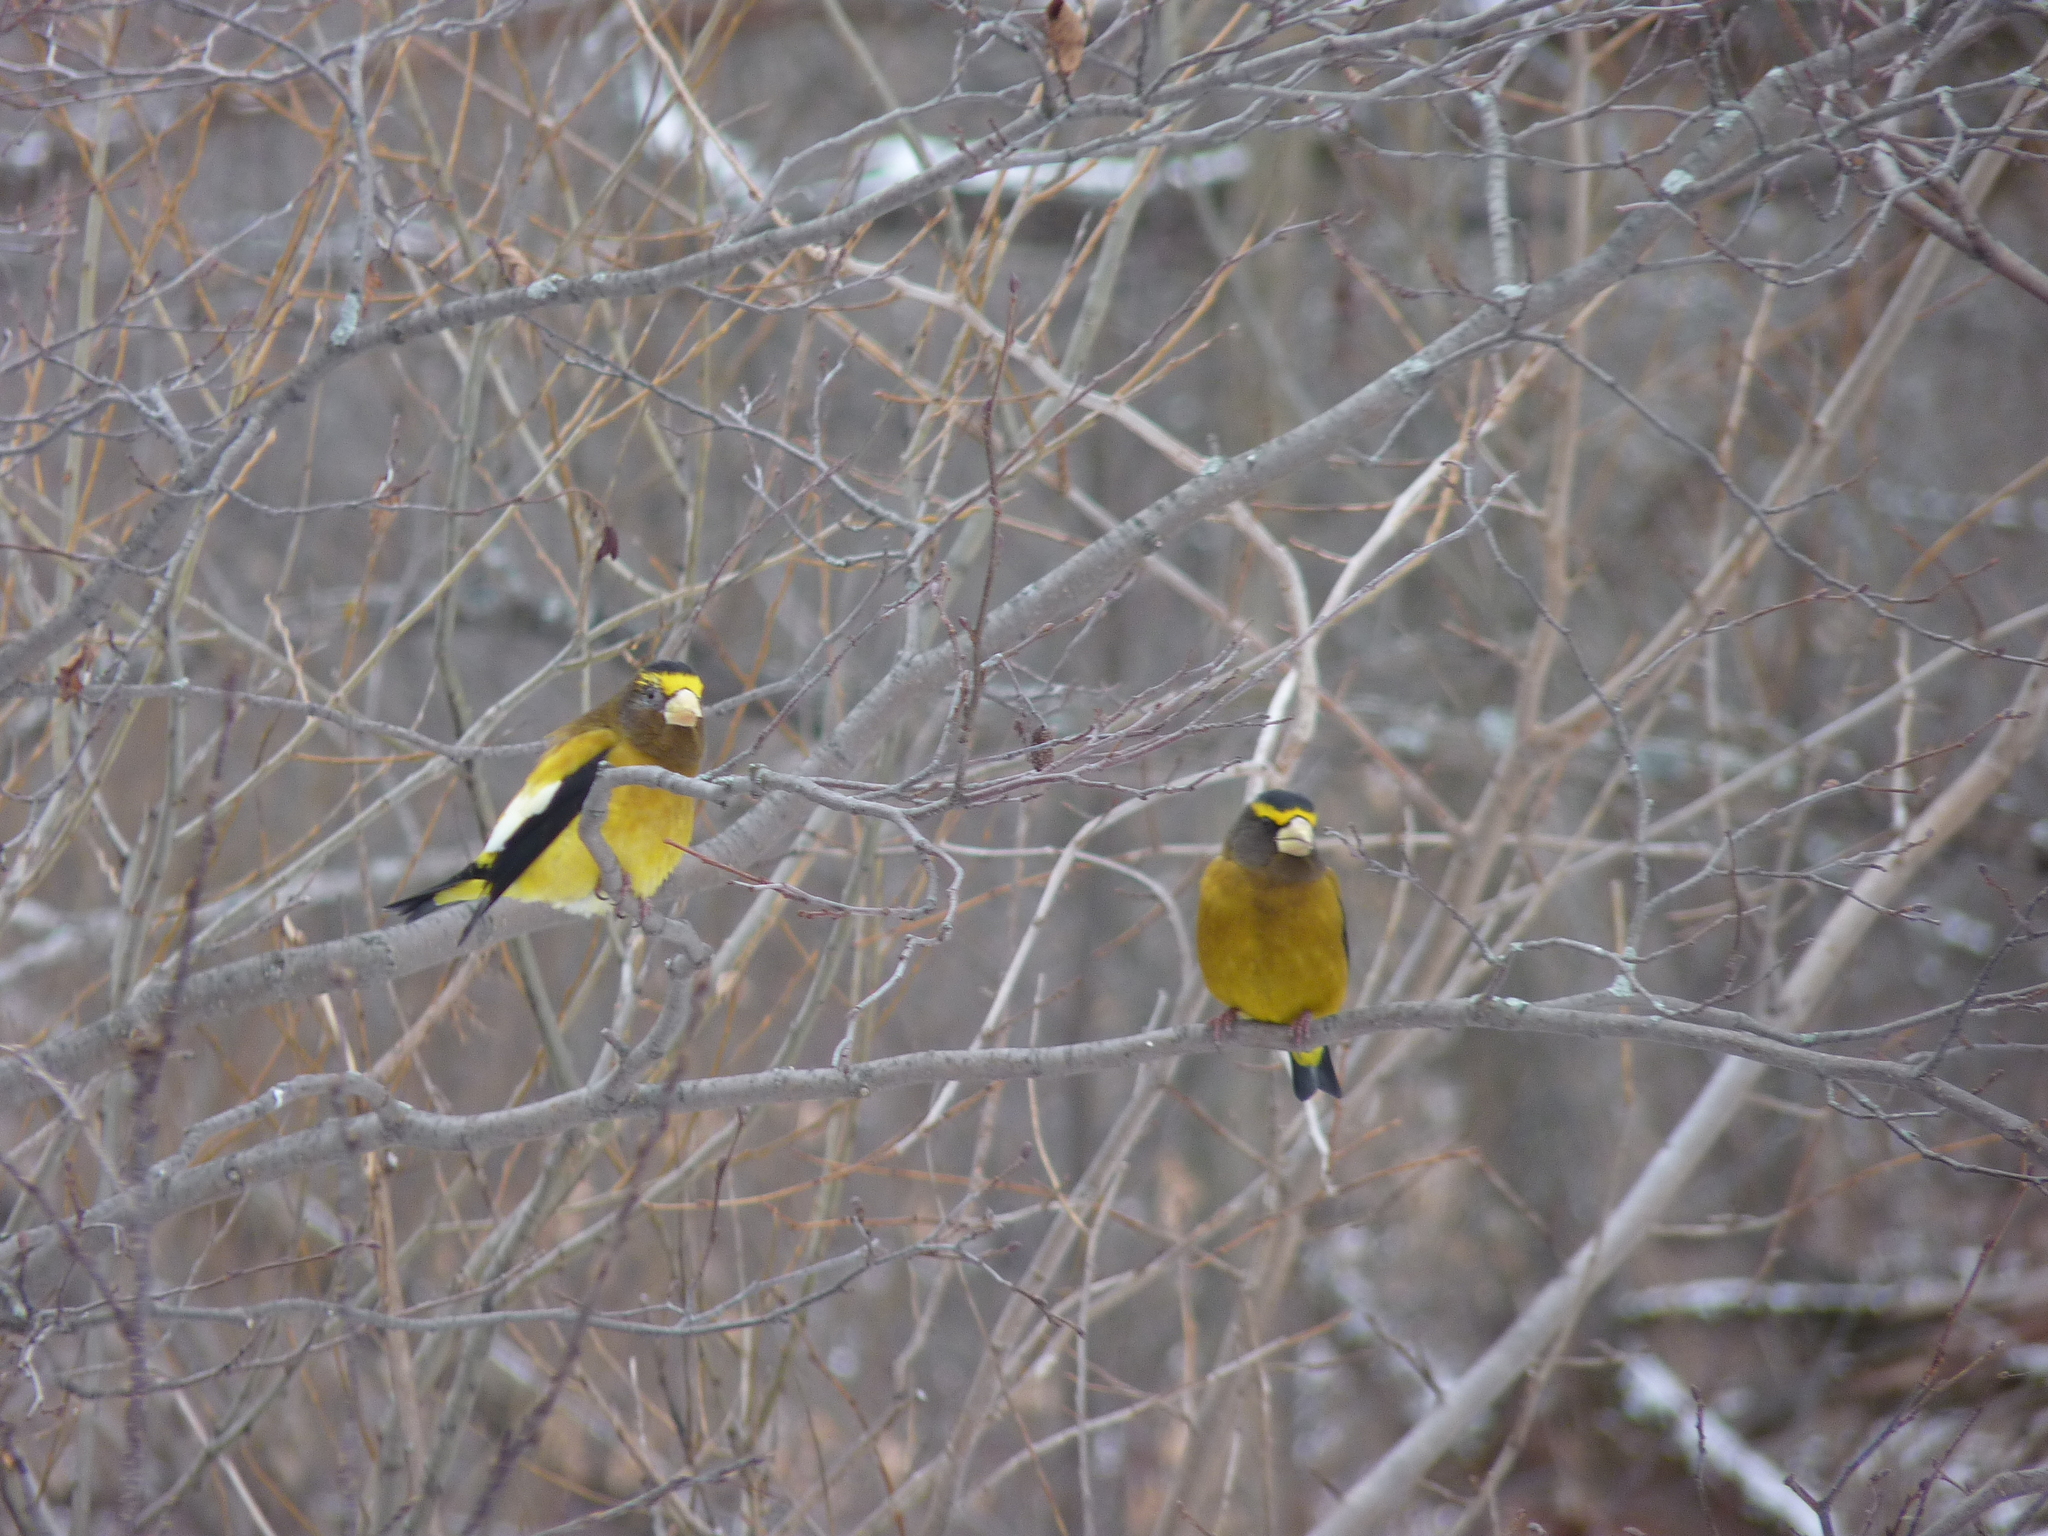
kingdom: Animalia
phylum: Chordata
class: Aves
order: Passeriformes
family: Fringillidae
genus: Hesperiphona
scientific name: Hesperiphona vespertina
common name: Evening grosbeak
